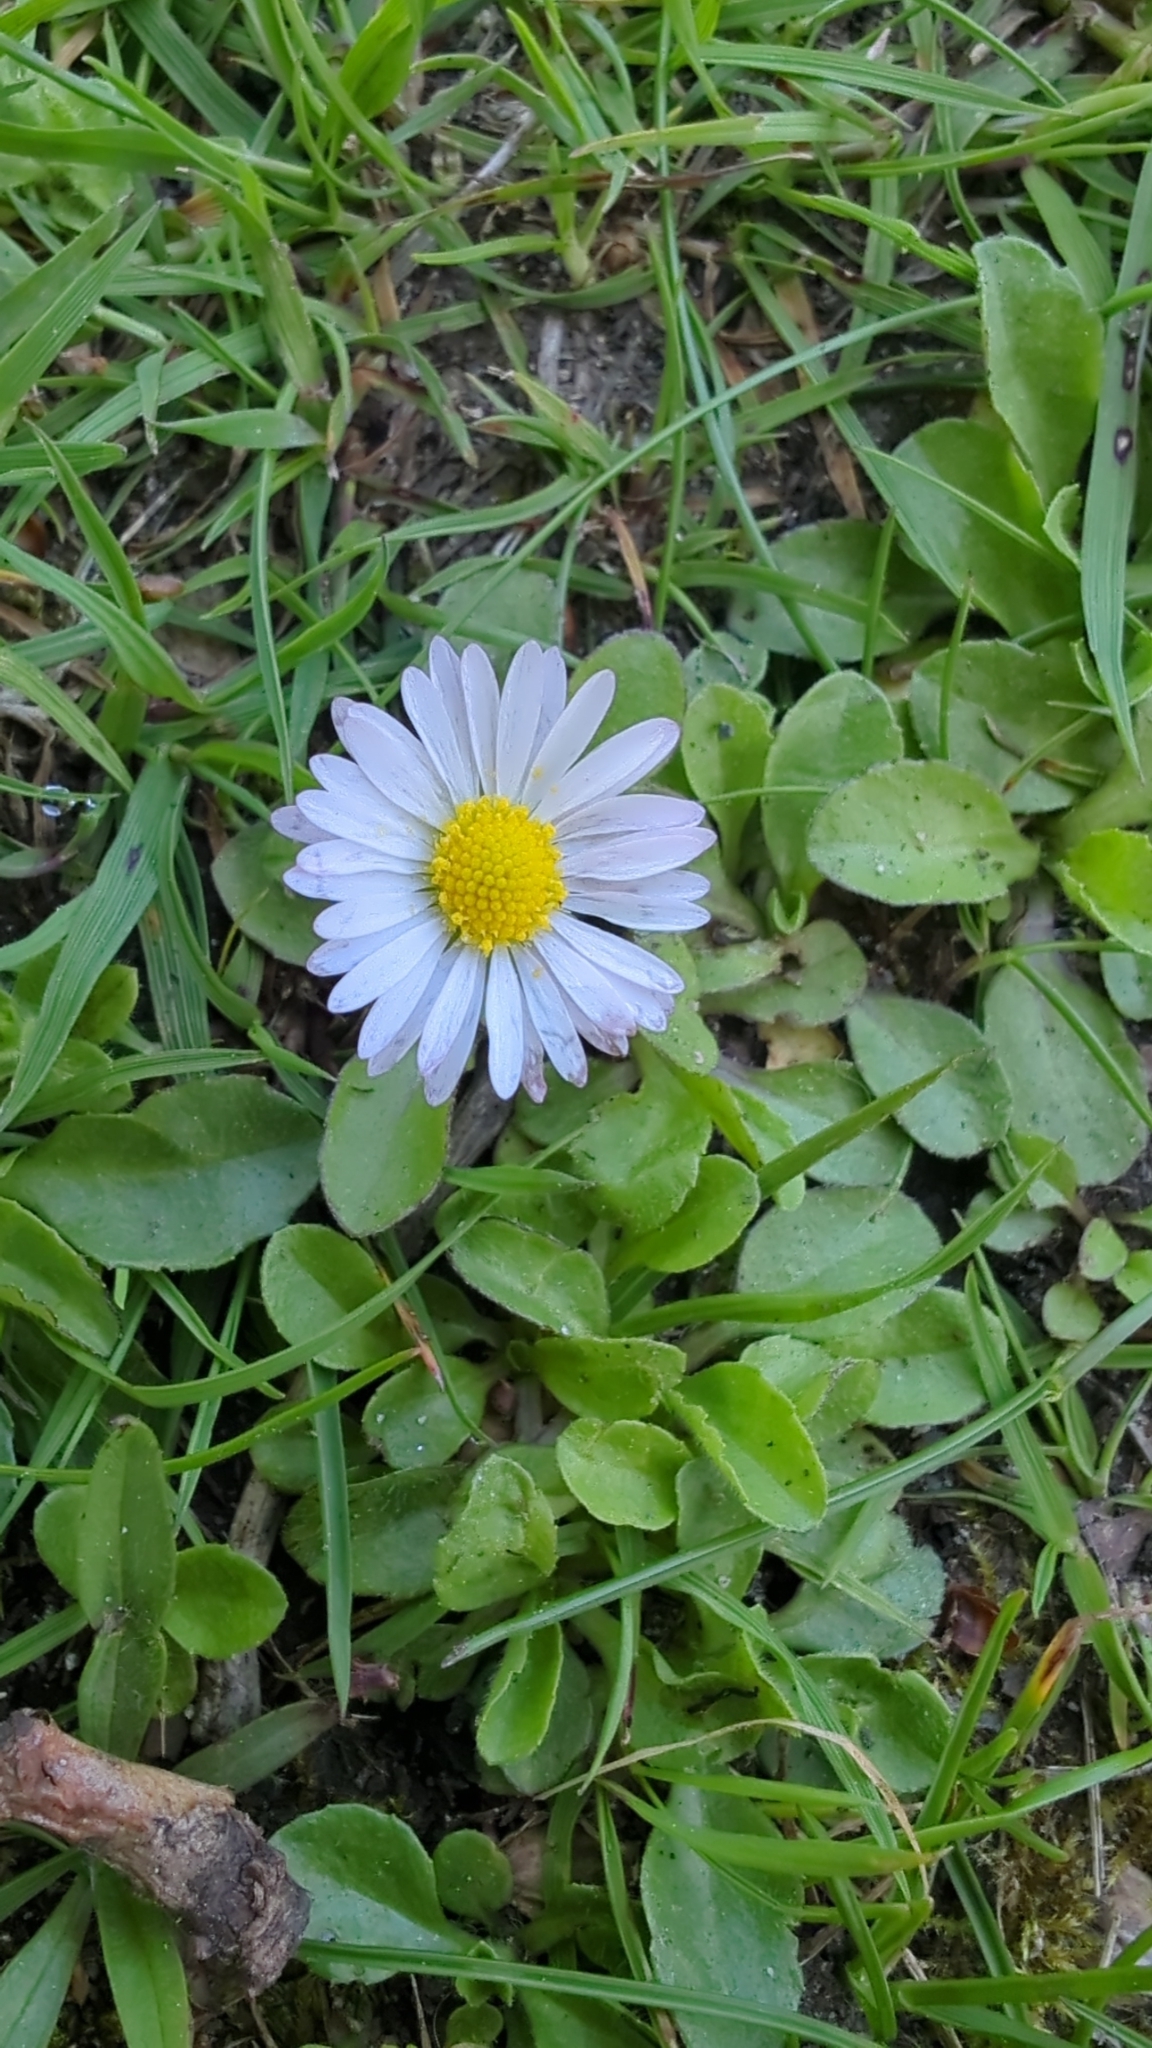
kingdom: Plantae
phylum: Tracheophyta
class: Magnoliopsida
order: Asterales
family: Asteraceae
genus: Bellis
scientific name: Bellis perennis
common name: Lawndaisy
